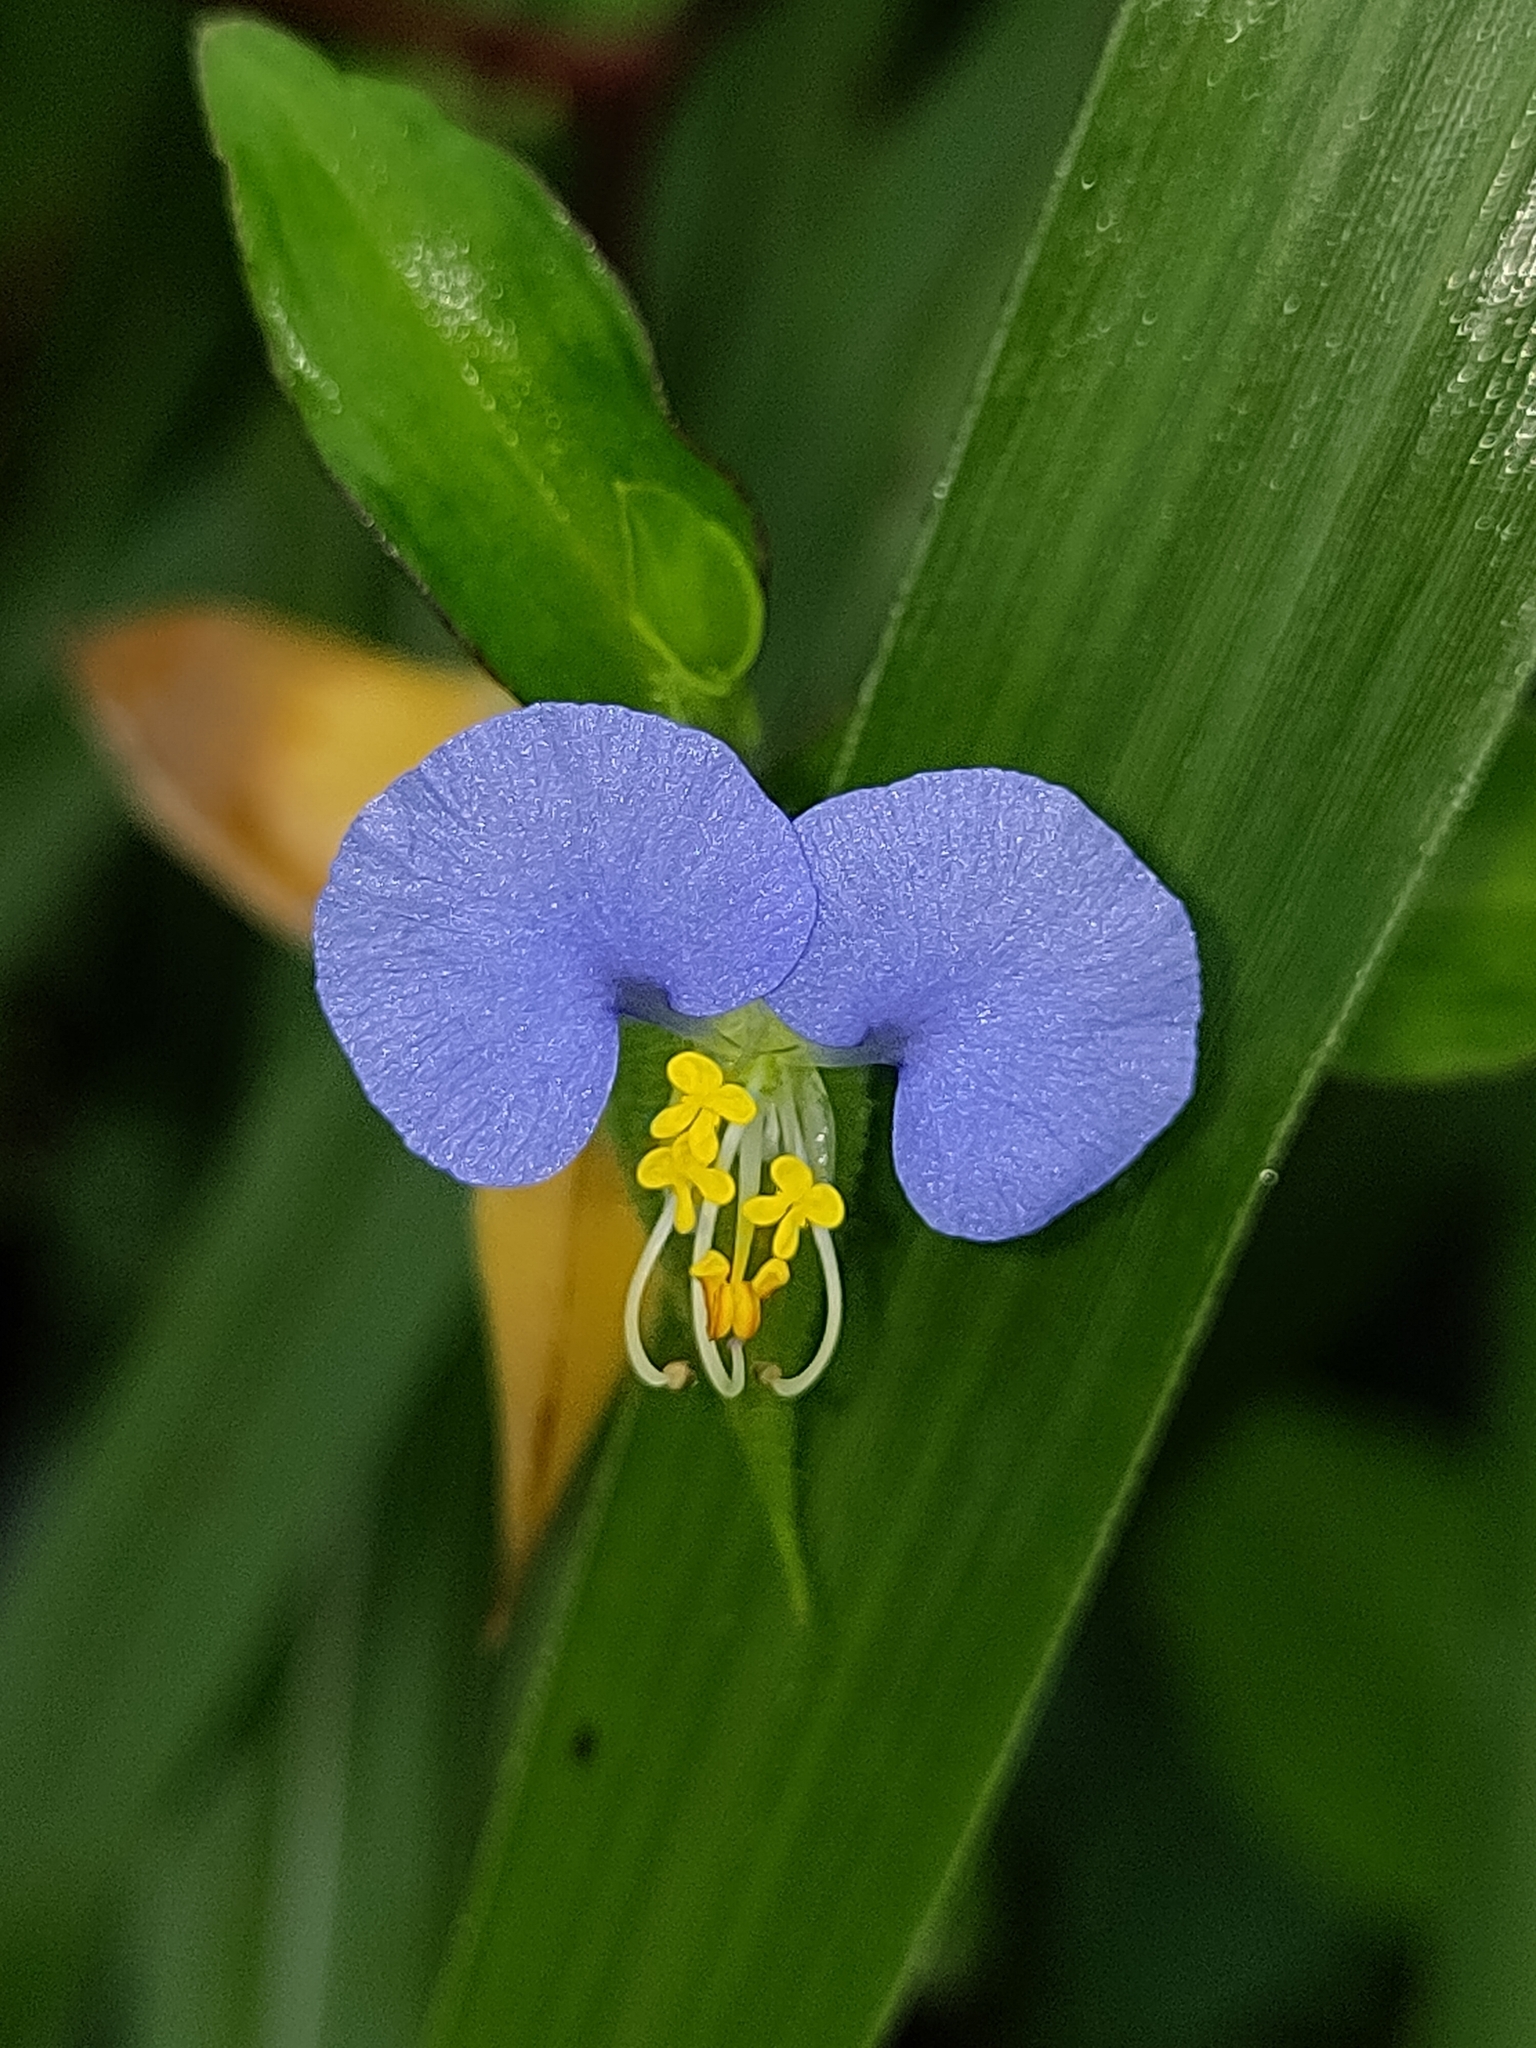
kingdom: Plantae
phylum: Tracheophyta
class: Liliopsida
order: Commelinales
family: Commelinaceae
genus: Commelina
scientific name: Commelina erecta
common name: Blousel blommetjie
